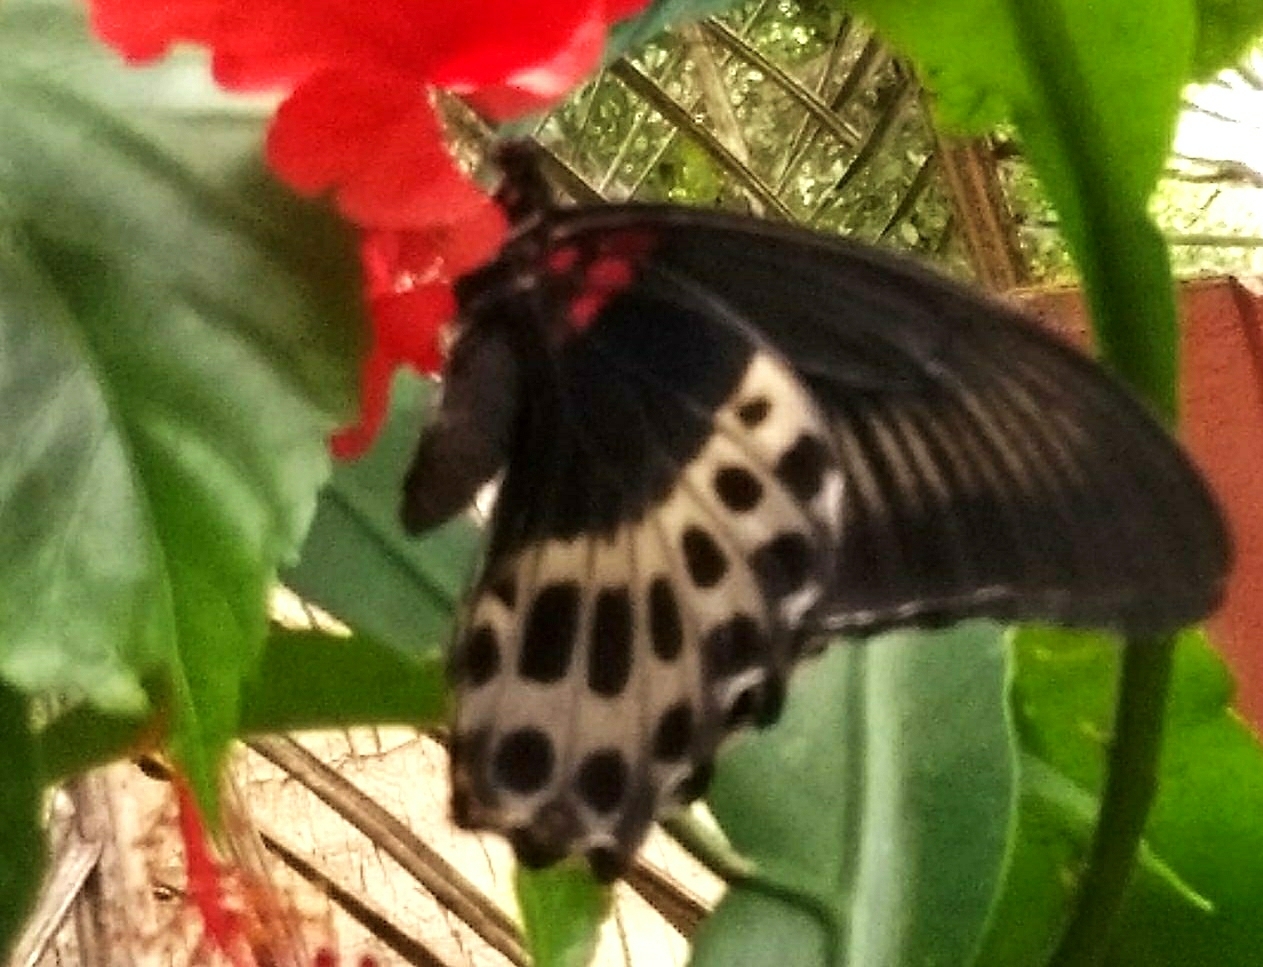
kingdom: Animalia
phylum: Arthropoda
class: Insecta
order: Lepidoptera
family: Papilionidae
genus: Papilio
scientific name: Papilio memnon
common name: Great mormon
